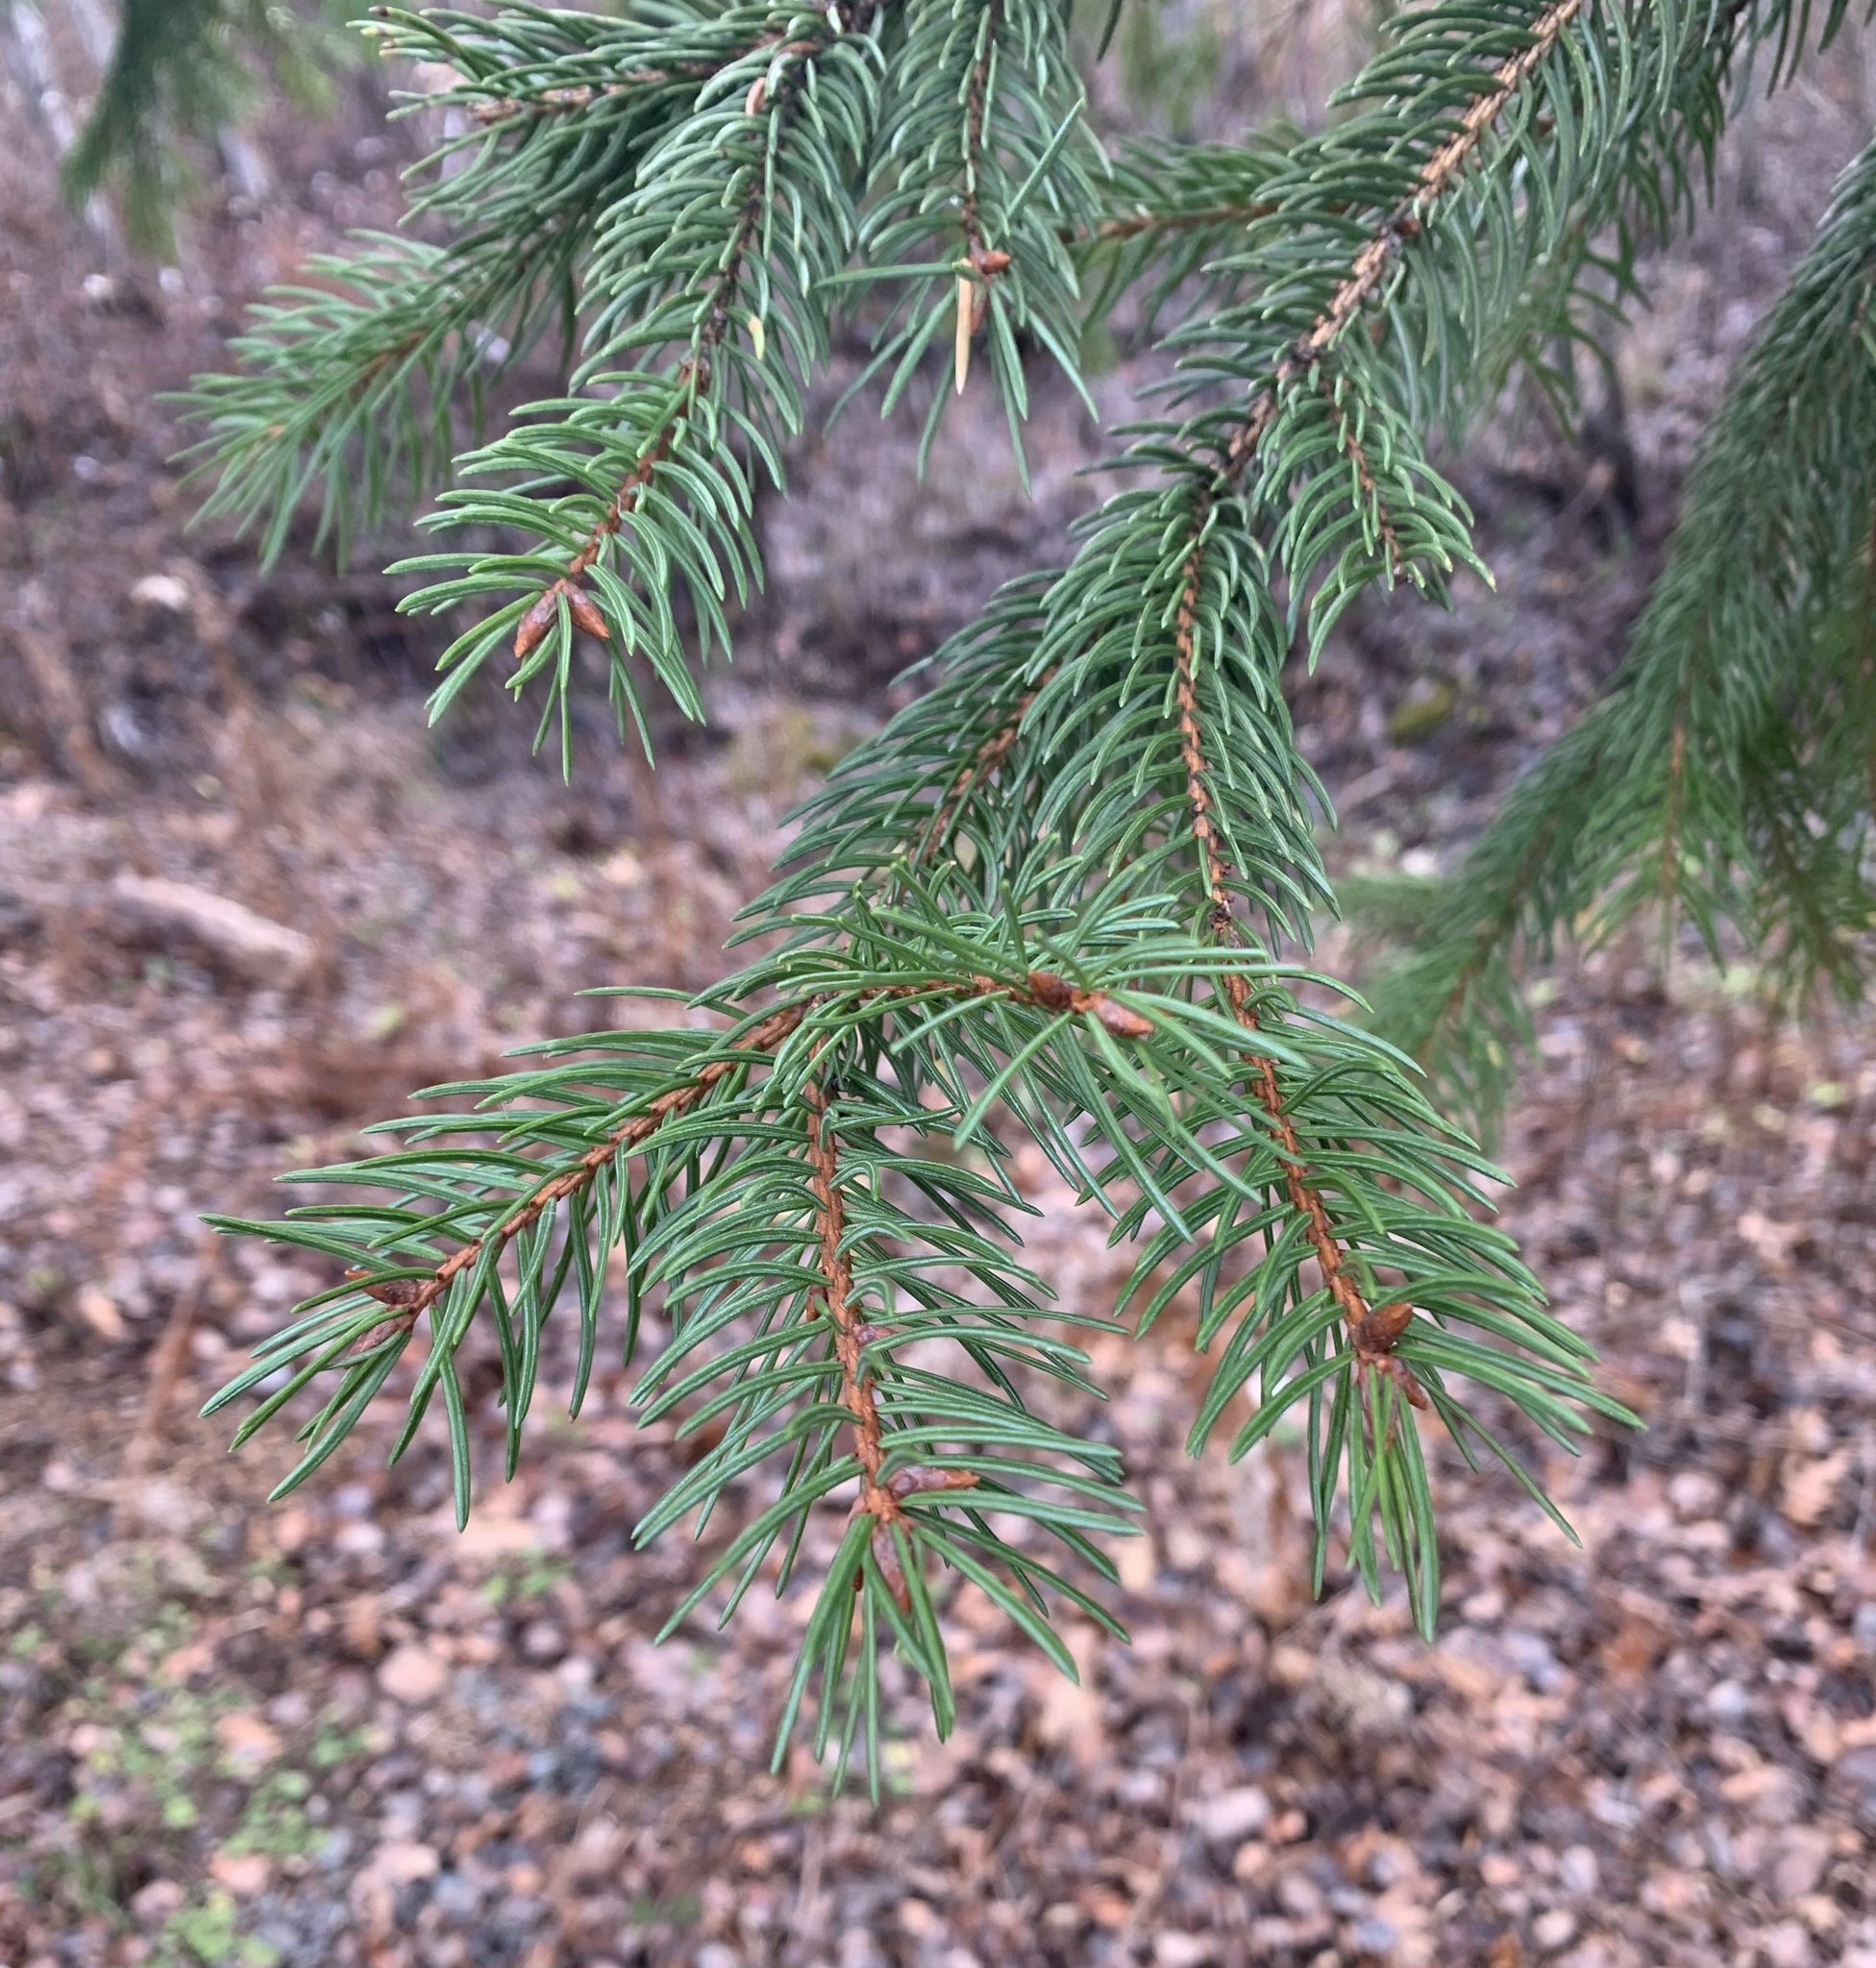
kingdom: Plantae
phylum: Tracheophyta
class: Pinopsida
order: Pinales
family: Pinaceae
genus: Picea
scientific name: Picea abies
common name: Norway spruce
